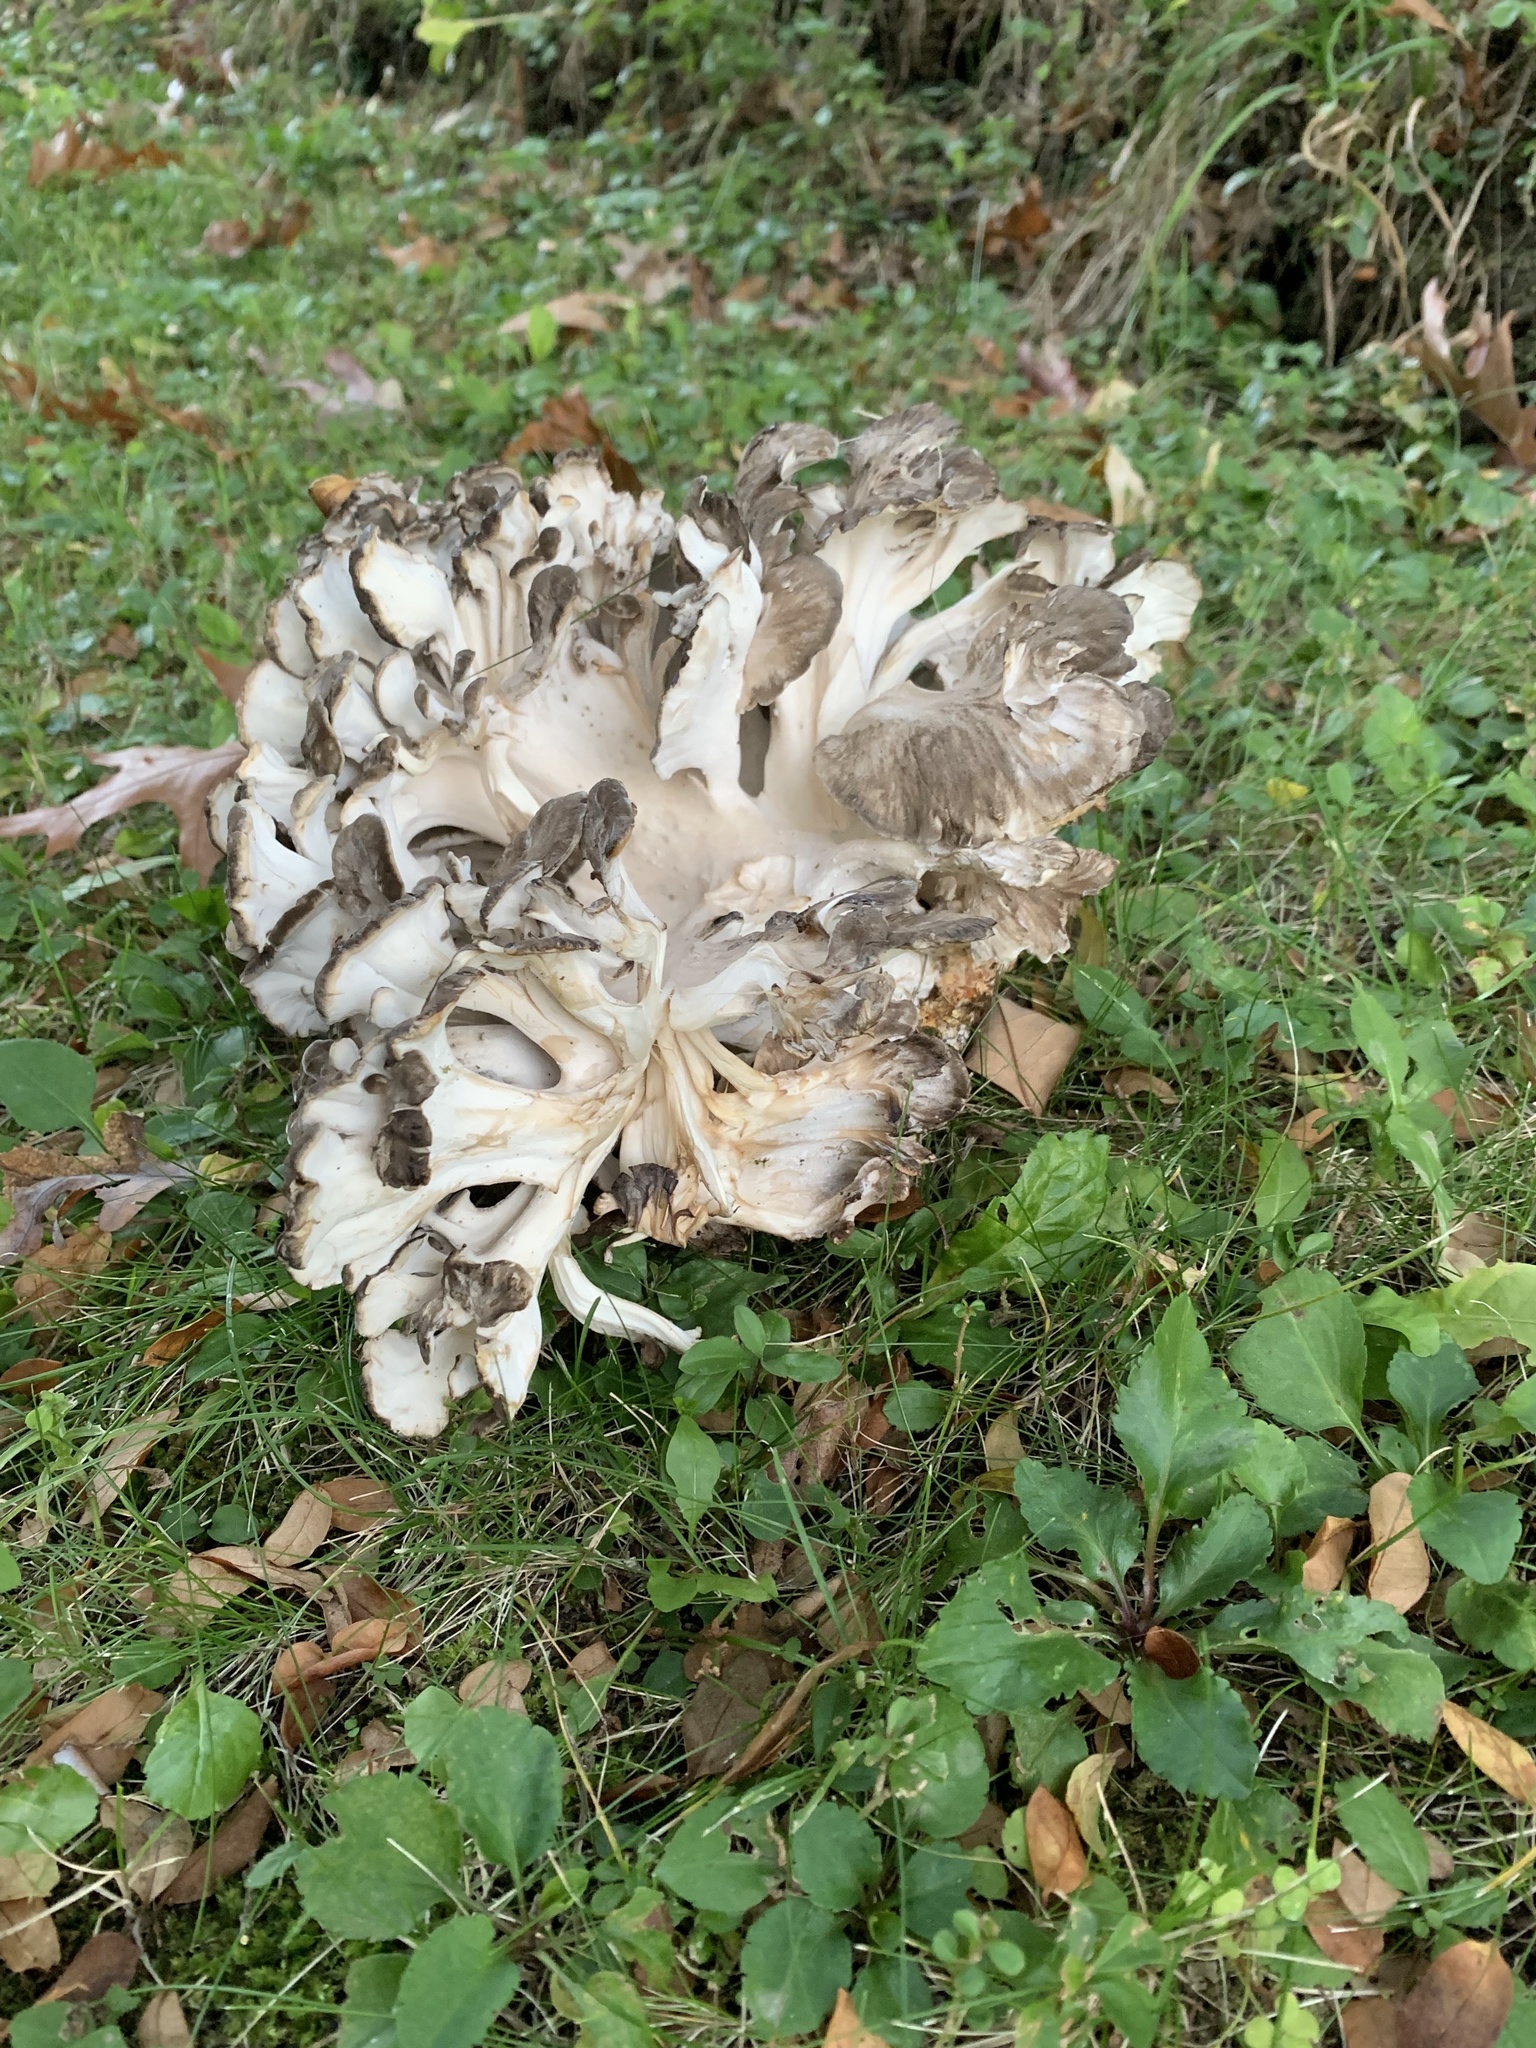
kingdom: Fungi
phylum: Basidiomycota
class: Agaricomycetes
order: Polyporales
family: Grifolaceae
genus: Grifola
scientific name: Grifola frondosa
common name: Hen of the woods
